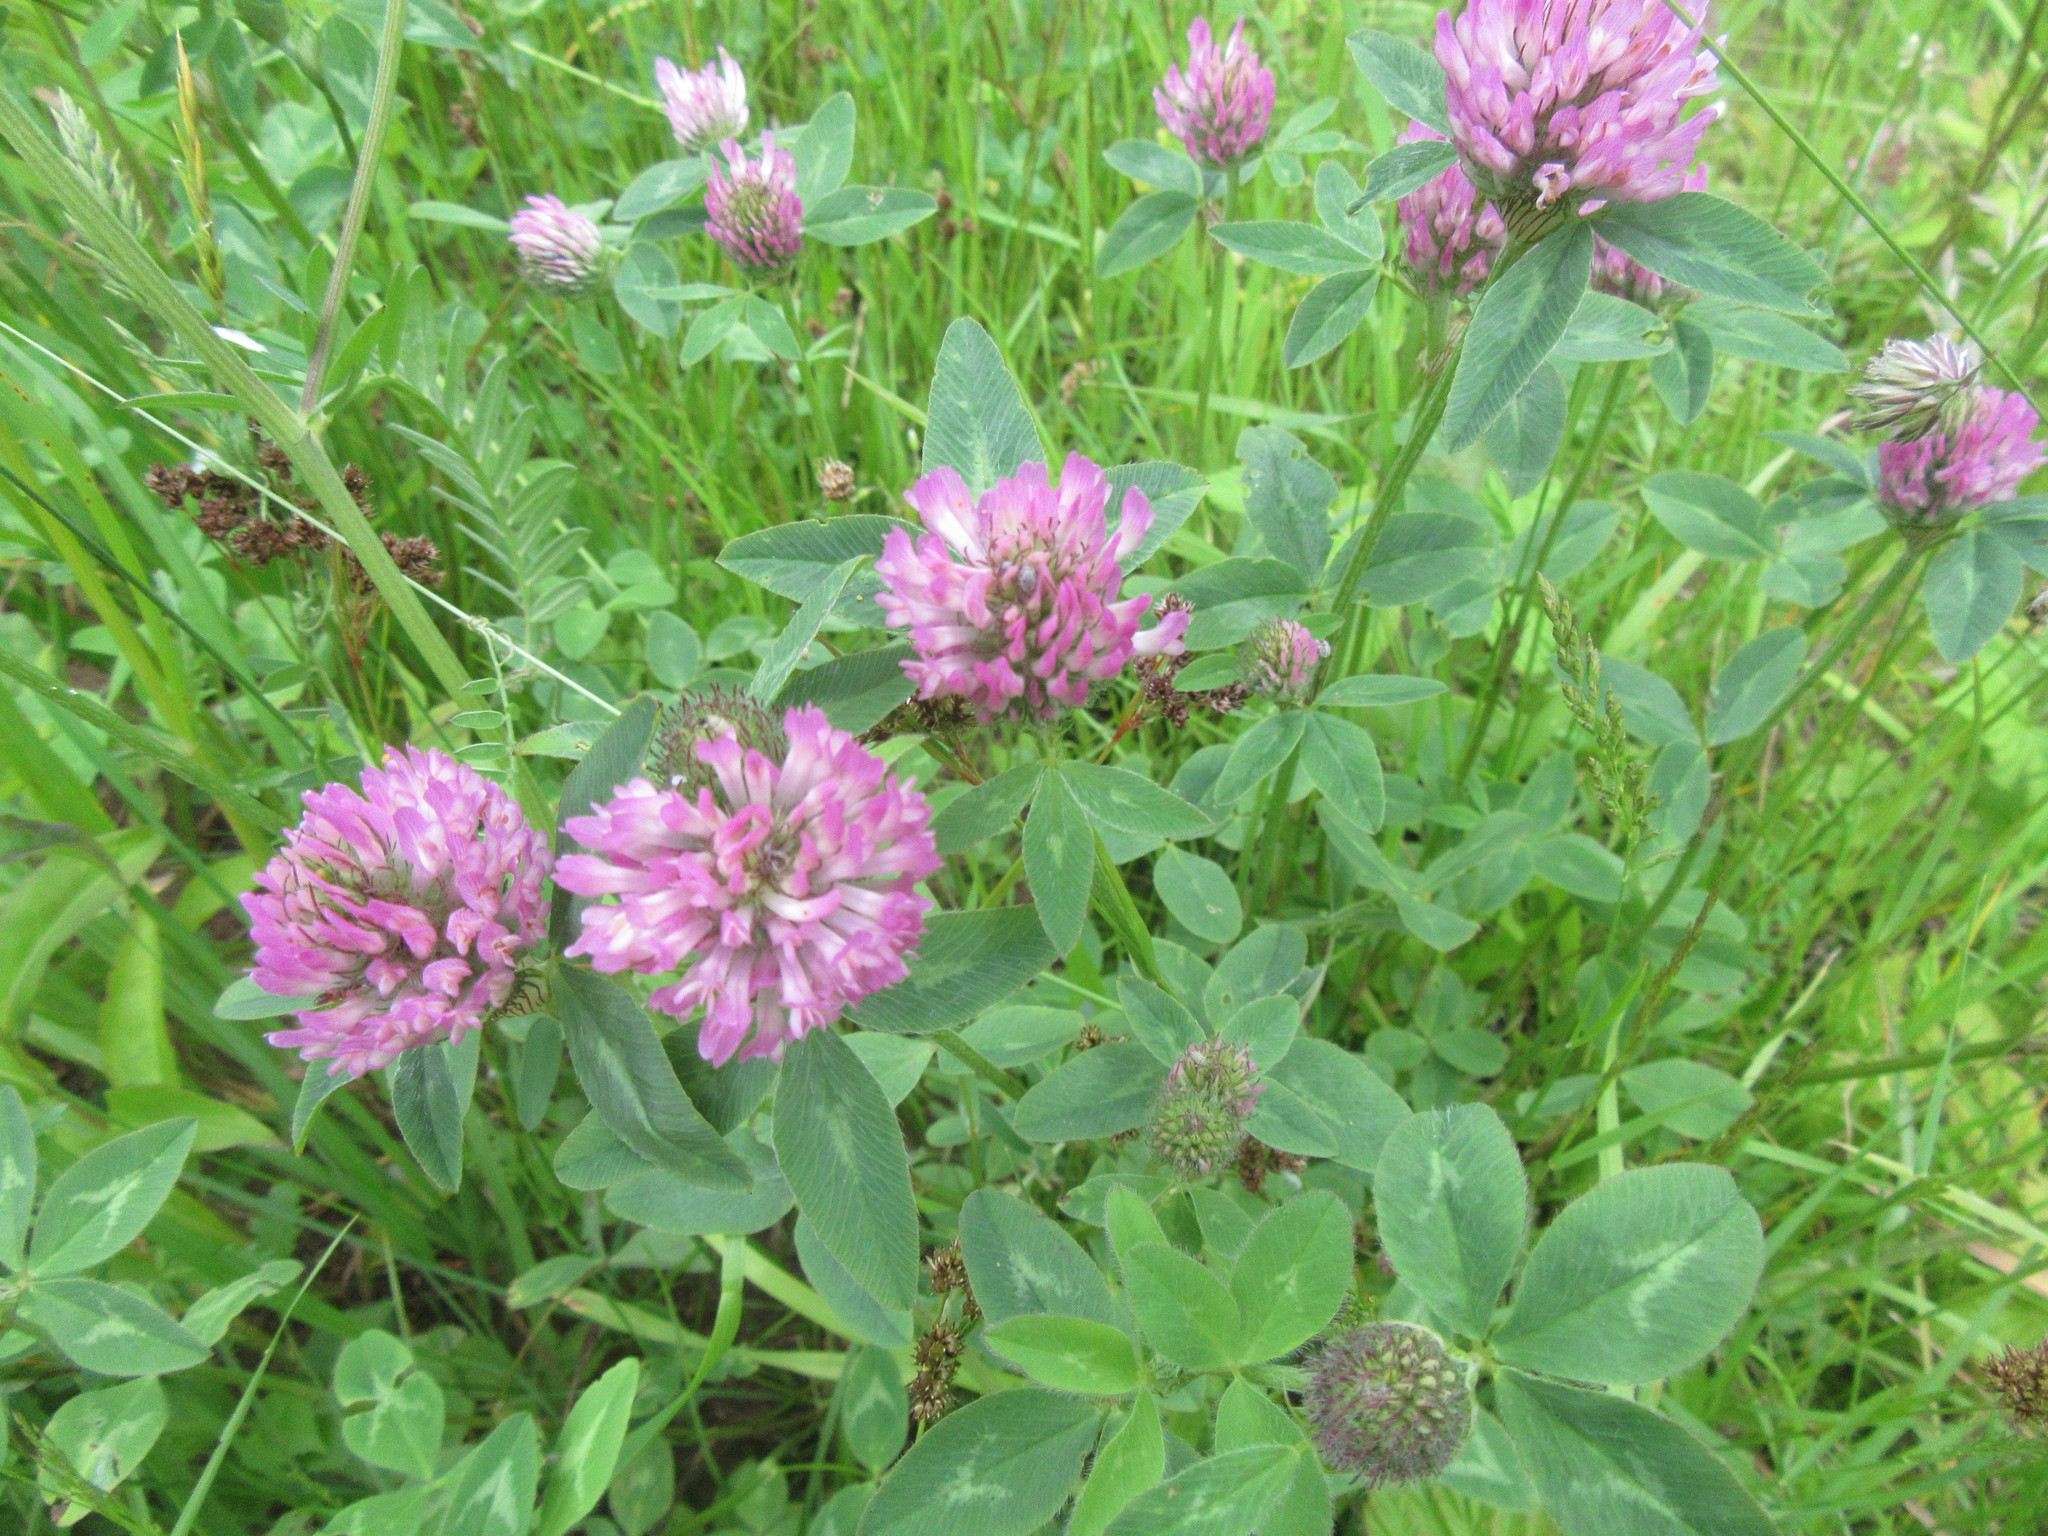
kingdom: Plantae
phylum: Tracheophyta
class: Magnoliopsida
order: Fabales
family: Fabaceae
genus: Trifolium
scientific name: Trifolium pratense
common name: Red clover
